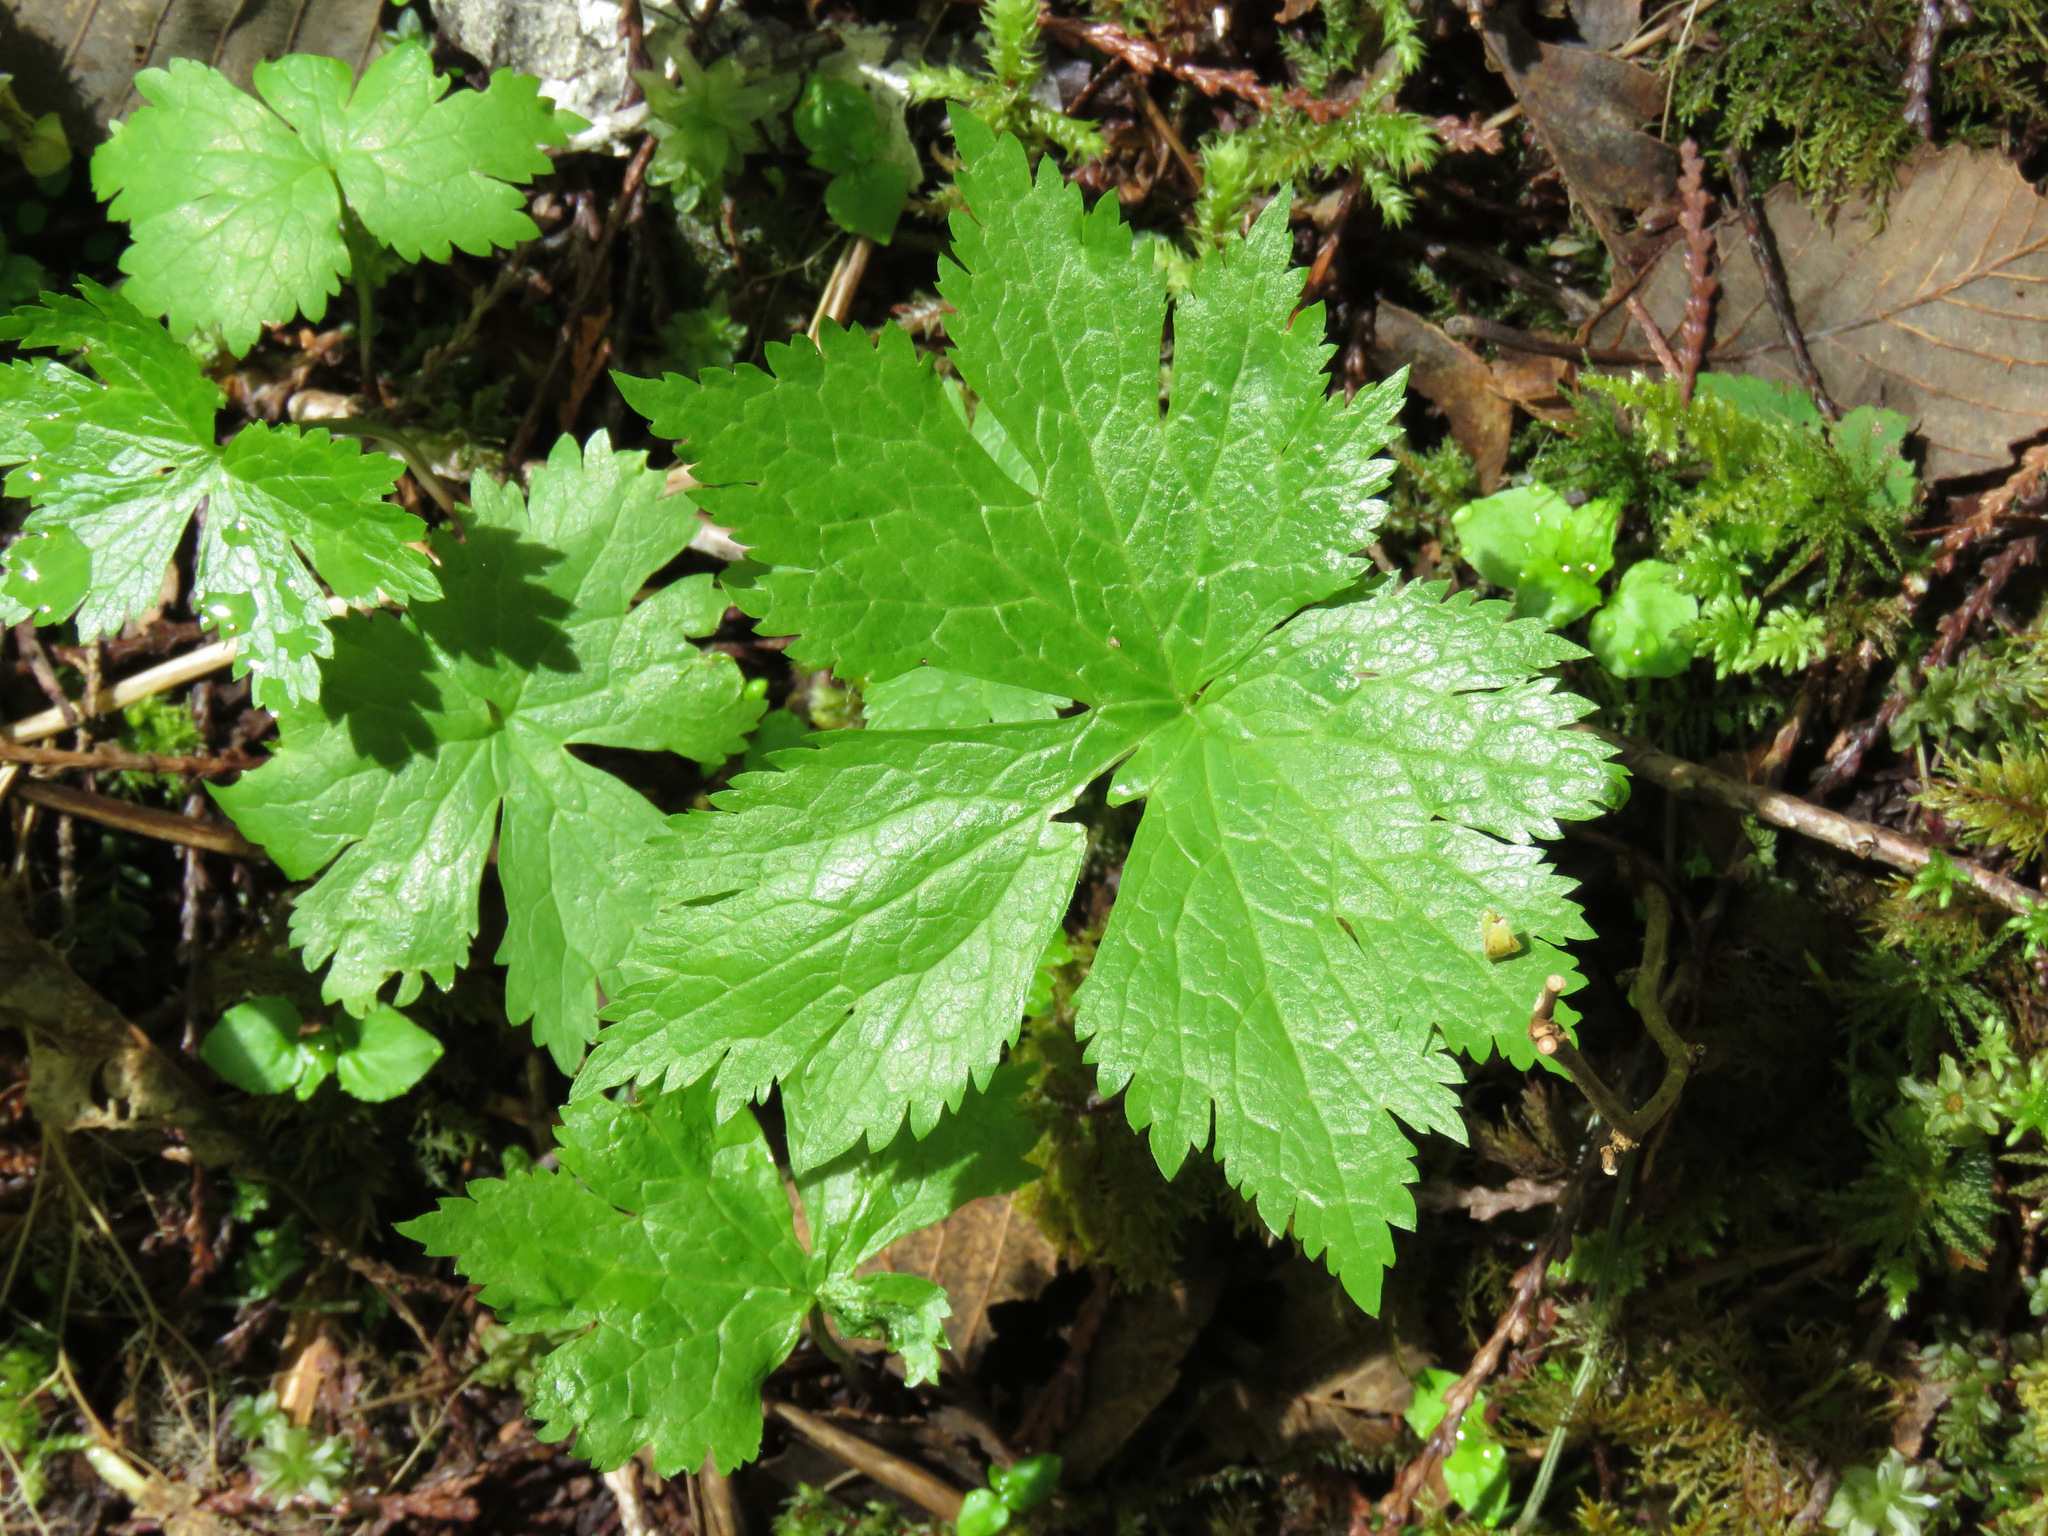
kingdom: Plantae
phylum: Tracheophyta
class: Magnoliopsida
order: Ranunculales
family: Ranunculaceae
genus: Trautvetteria
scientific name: Trautvetteria carolinensis
